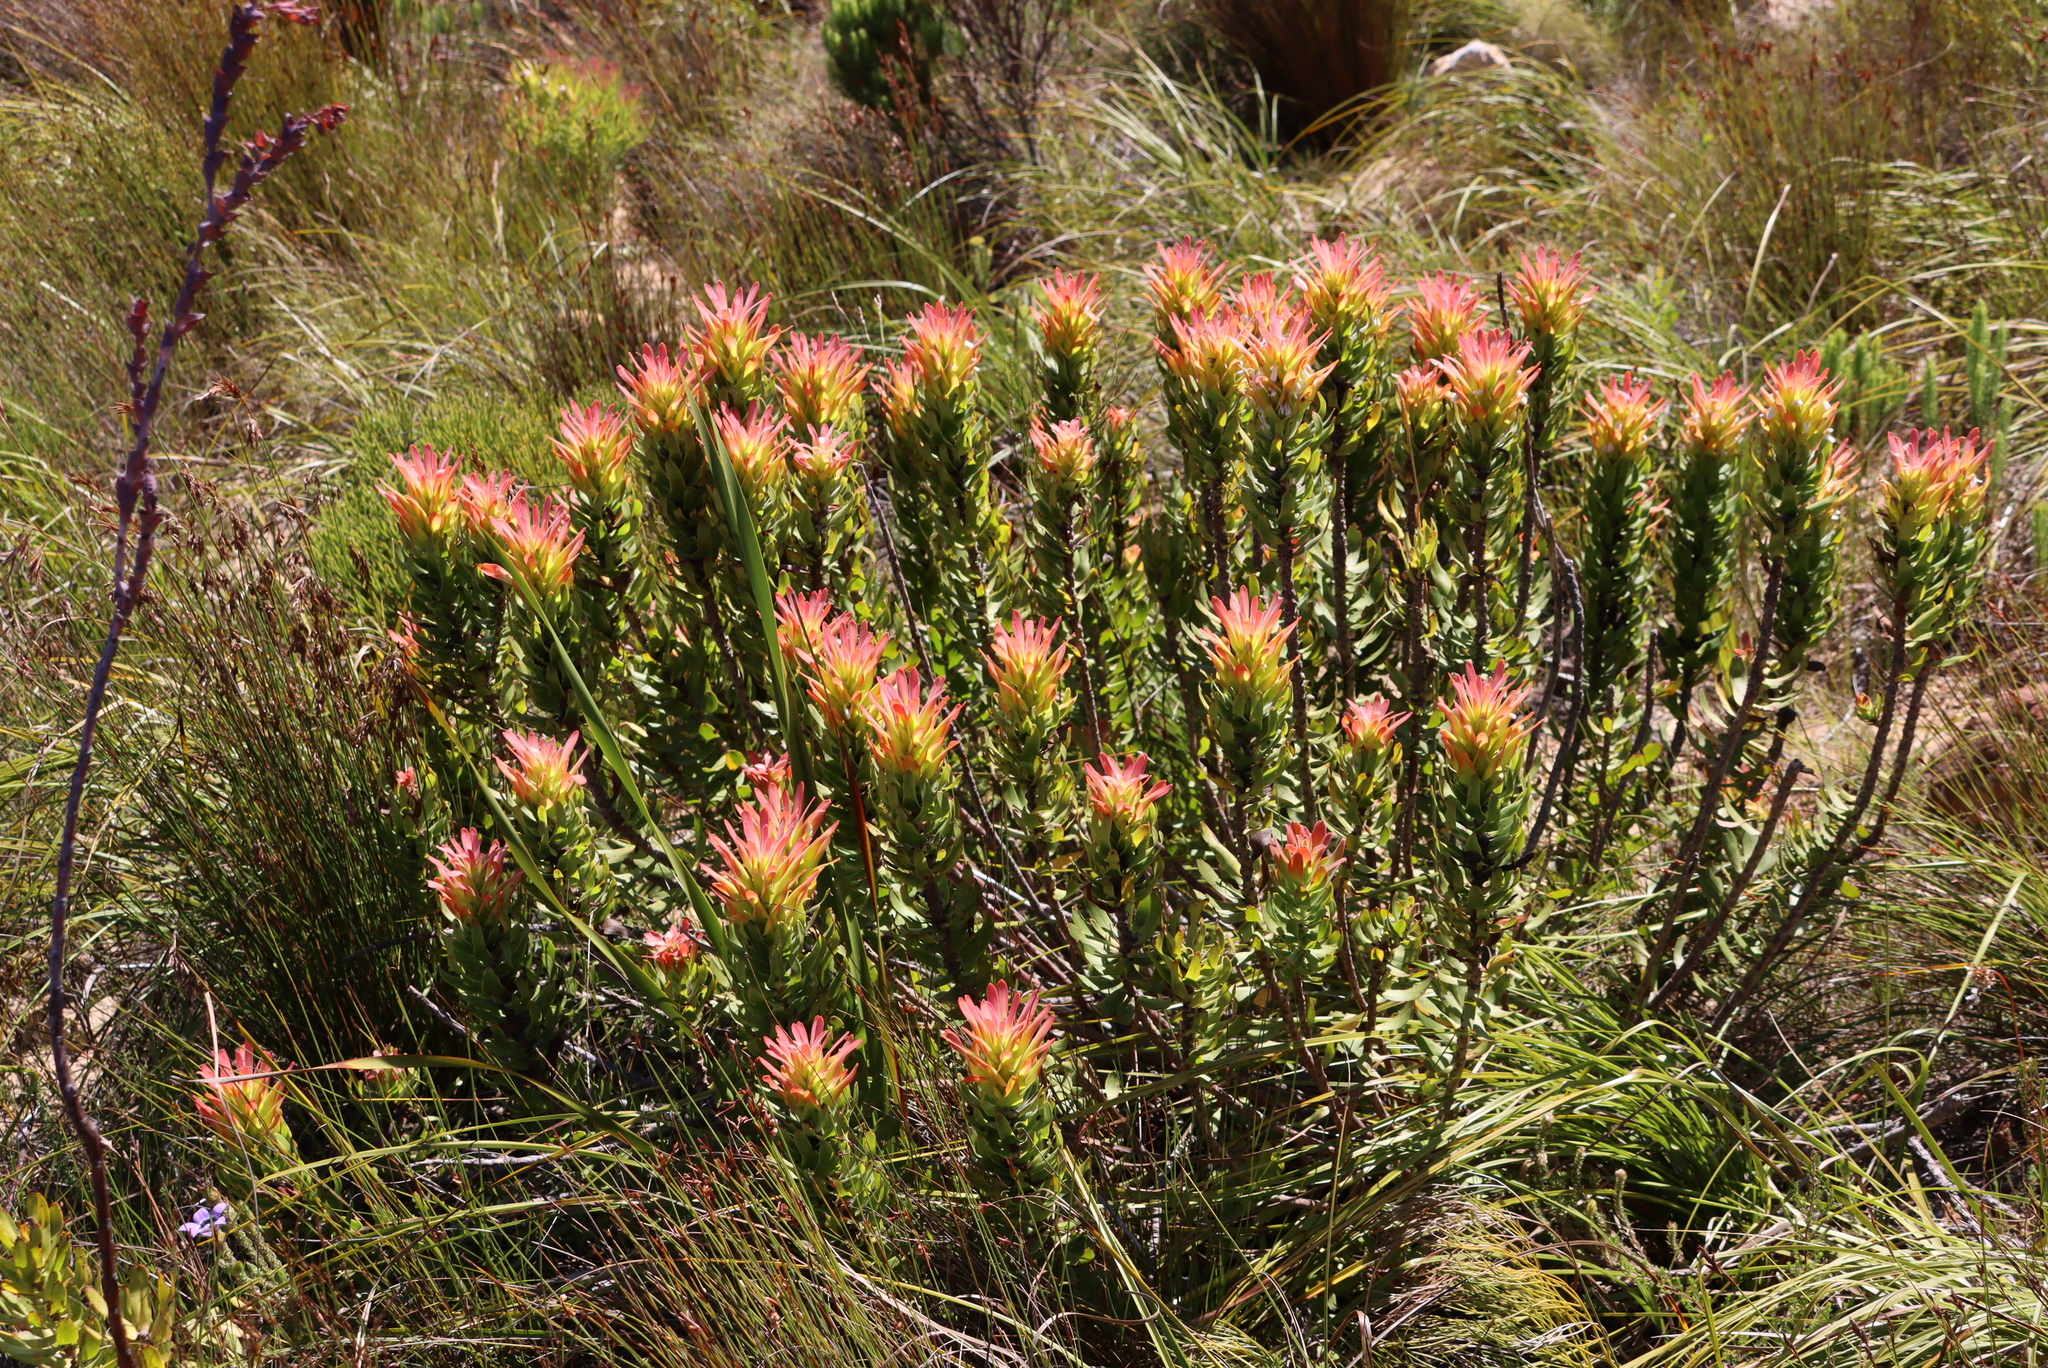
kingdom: Plantae
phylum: Tracheophyta
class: Magnoliopsida
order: Proteales
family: Proteaceae
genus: Mimetes
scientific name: Mimetes cucullatus
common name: Common pagoda
